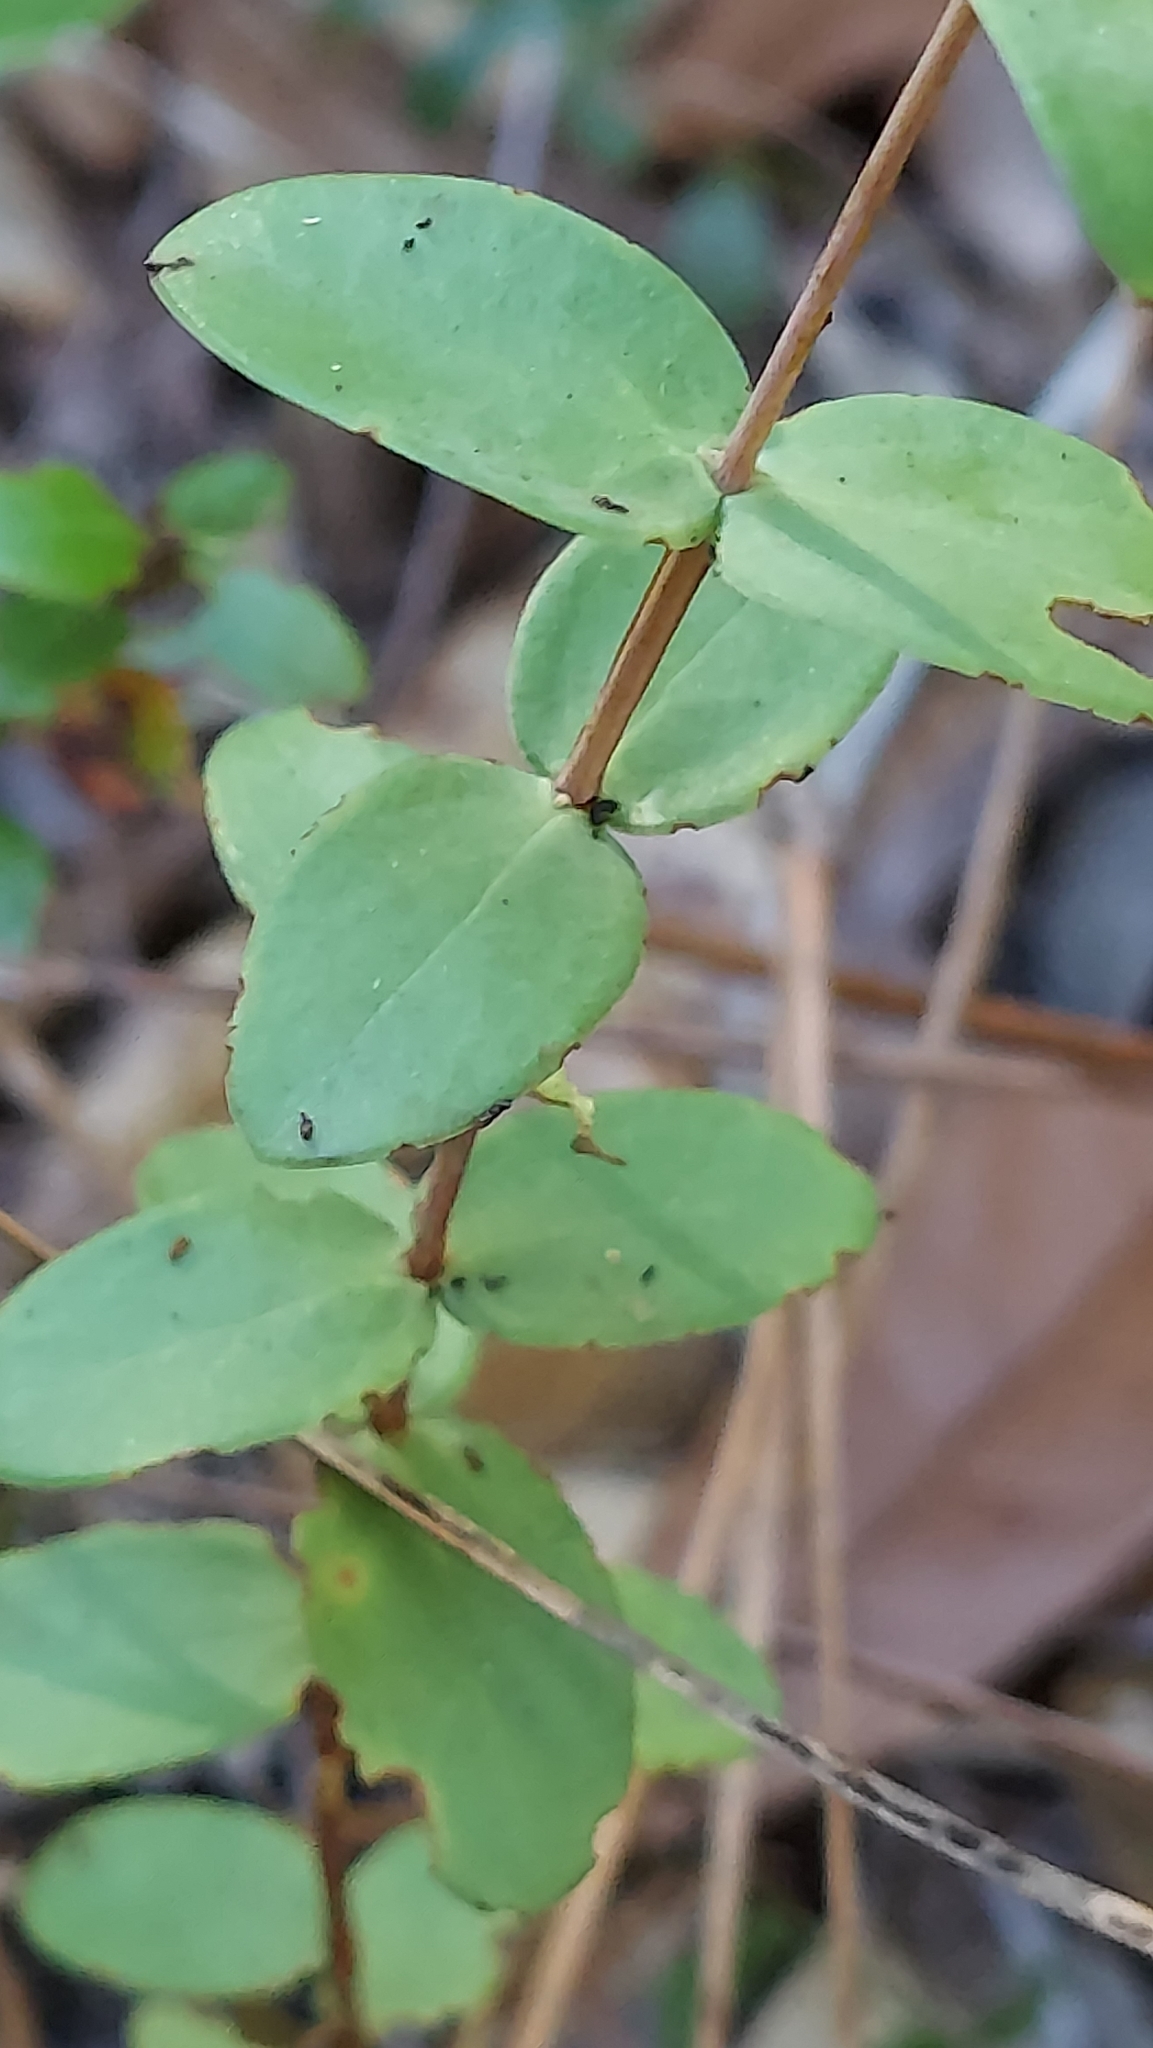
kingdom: Plantae
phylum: Tracheophyta
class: Magnoliopsida
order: Malpighiales
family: Hypericaceae
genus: Hypericum
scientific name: Hypericum tetrapetalum
